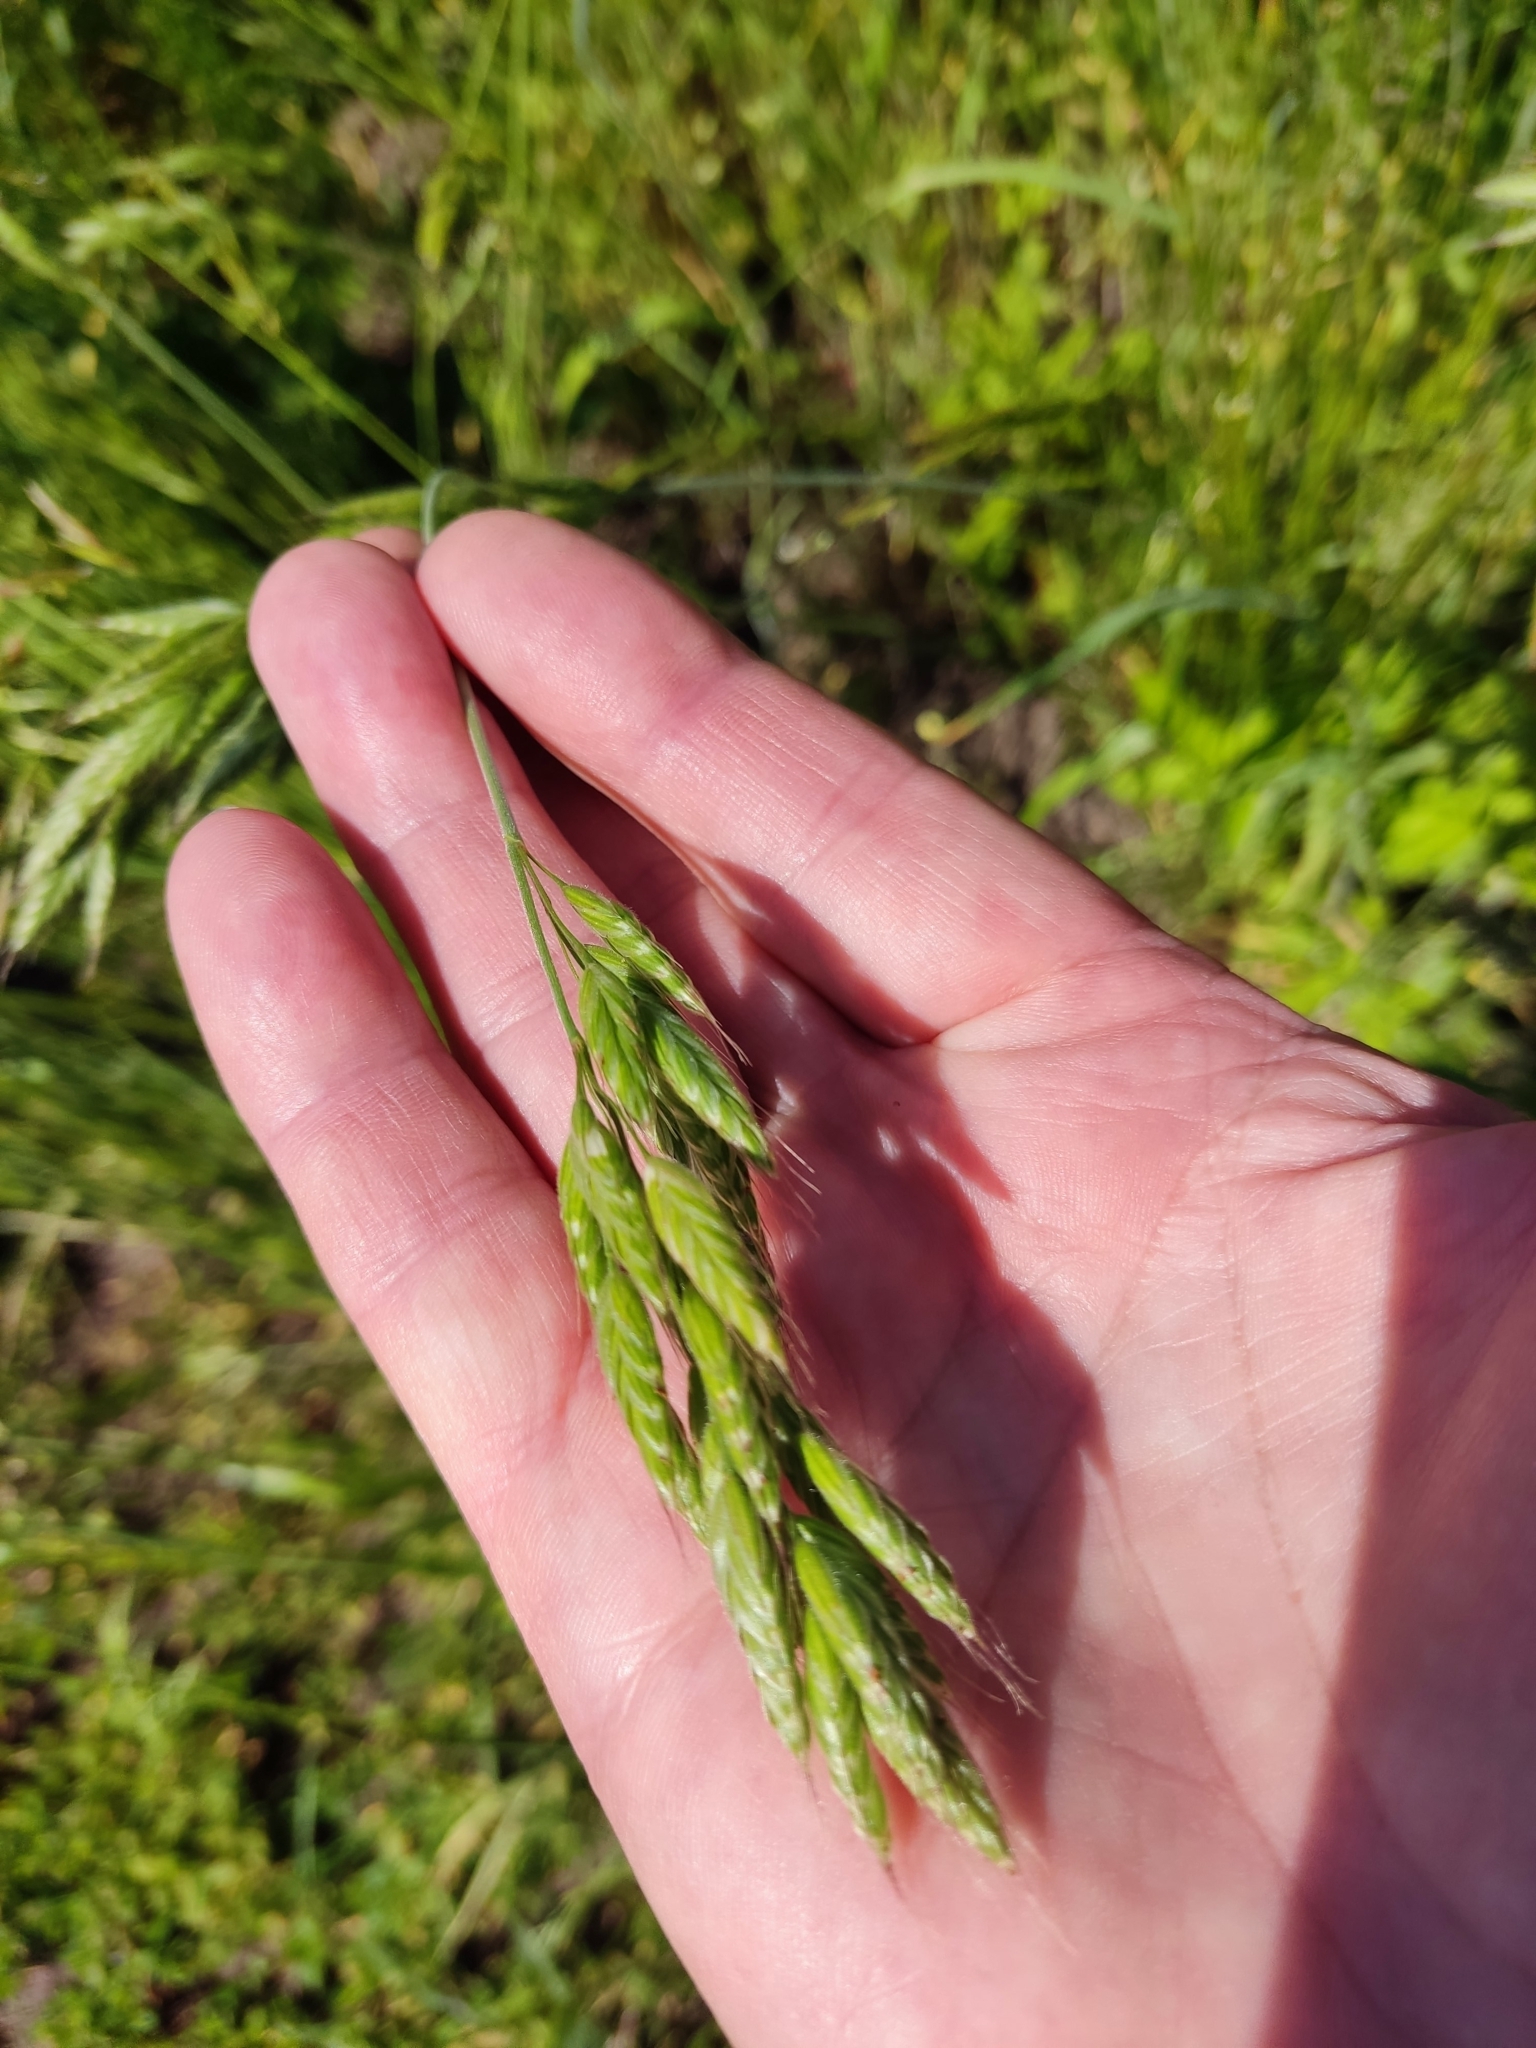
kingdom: Plantae
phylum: Tracheophyta
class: Liliopsida
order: Poales
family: Poaceae
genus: Bromus
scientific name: Bromus hordeaceus
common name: Soft brome
